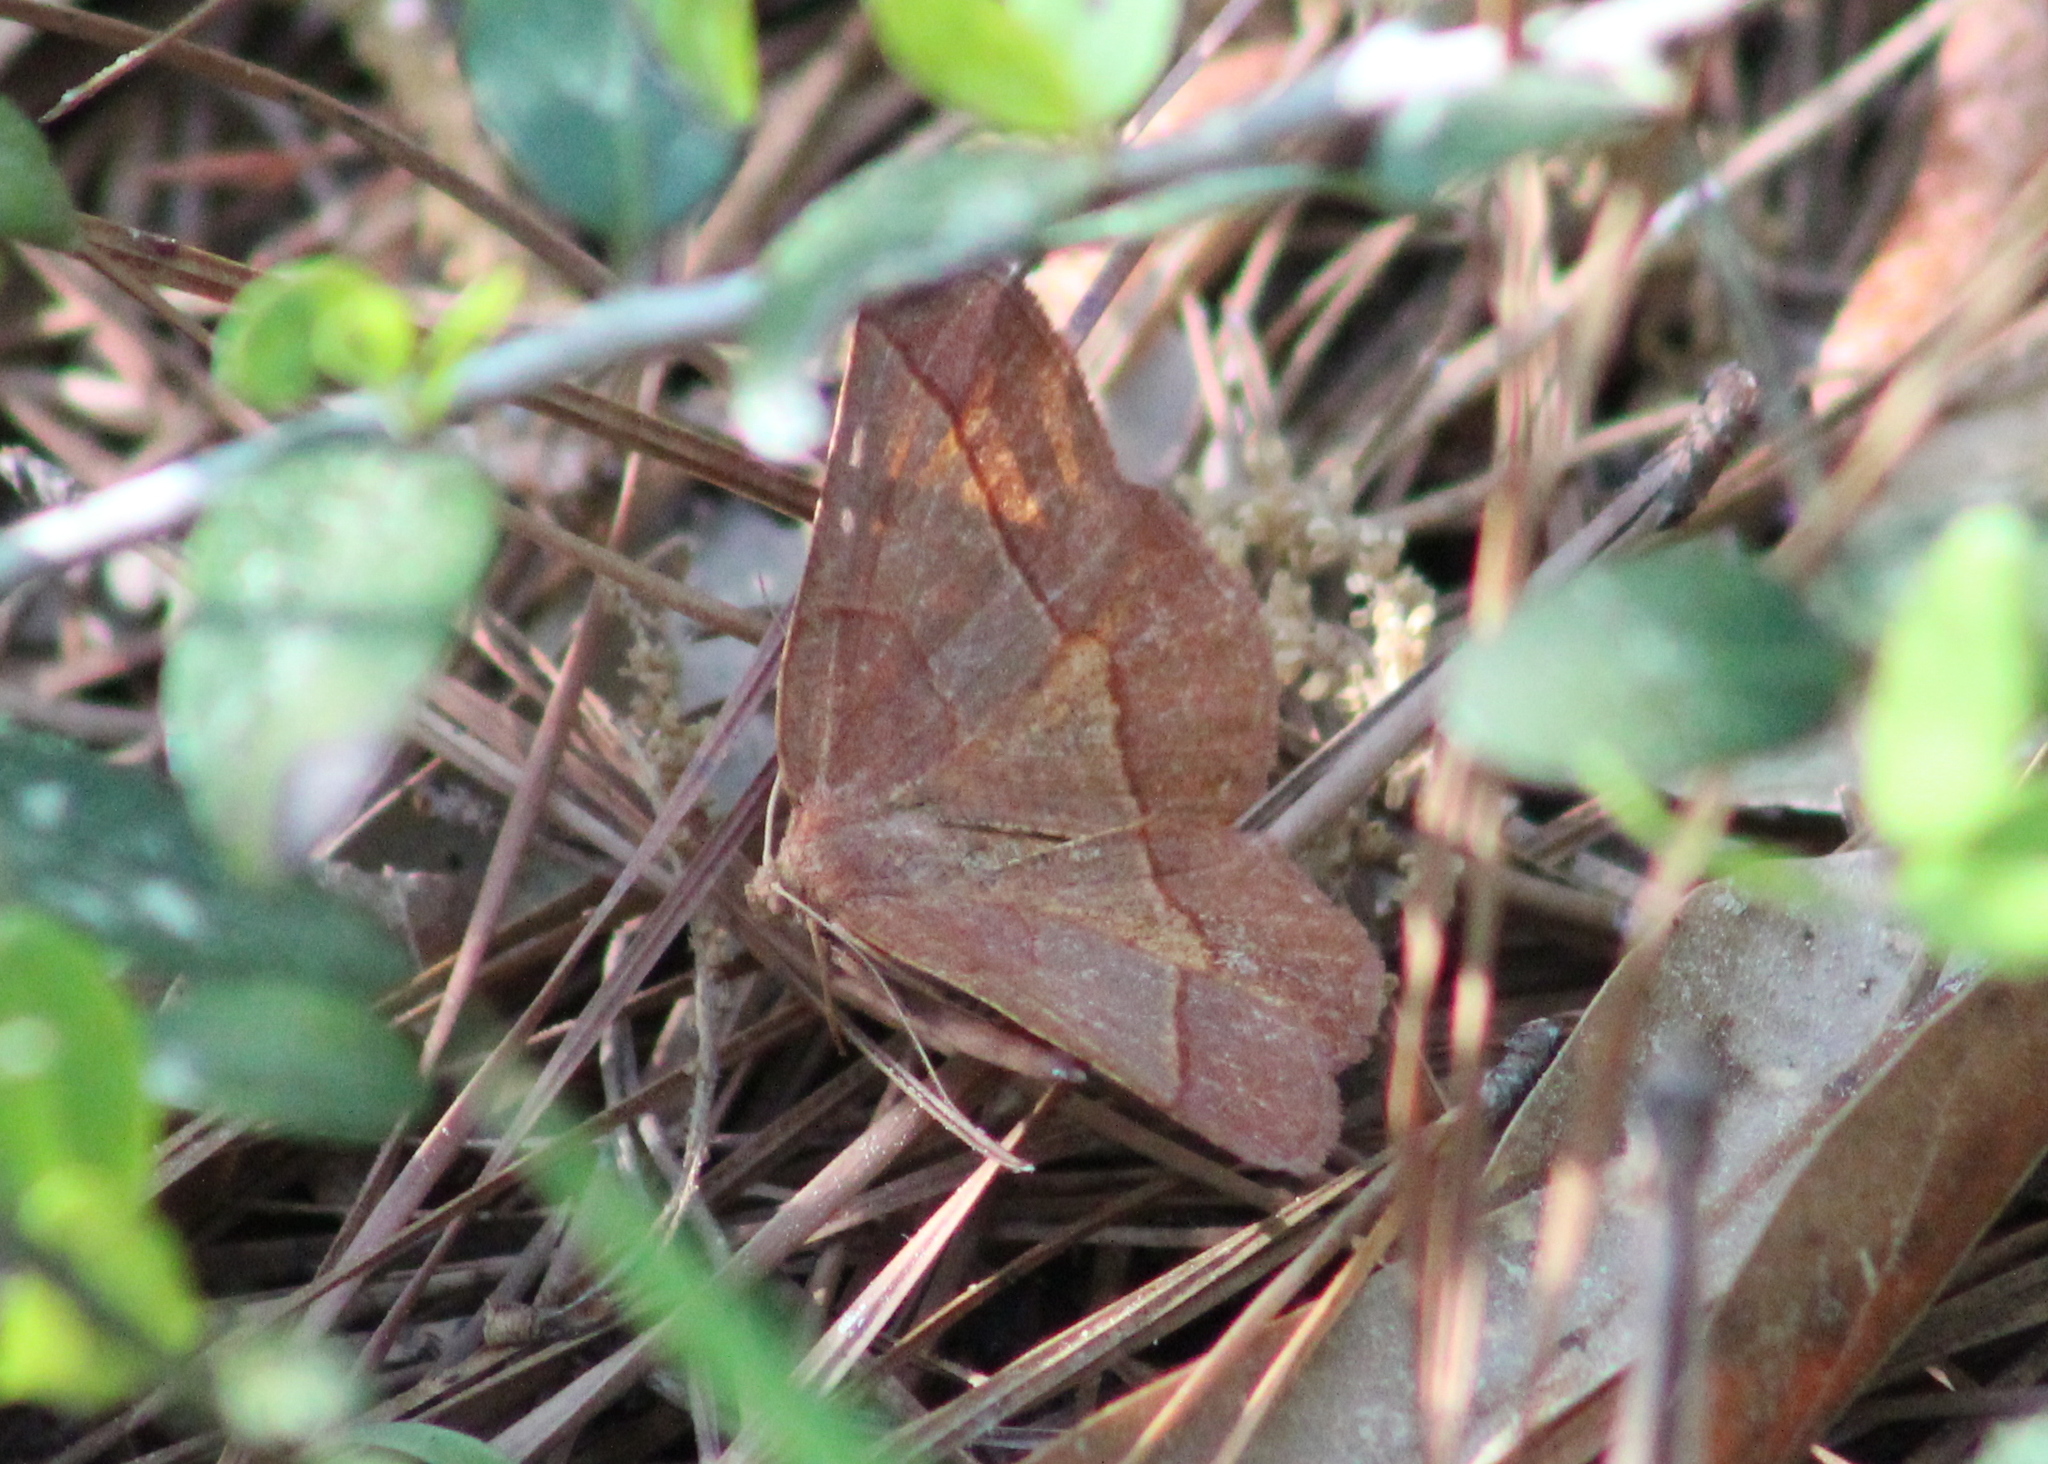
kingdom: Animalia
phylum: Arthropoda
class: Insecta
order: Lepidoptera
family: Geometridae
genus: Metarranthis
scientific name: Metarranthis obfirmaria
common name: Yellow-washed metarranthis
